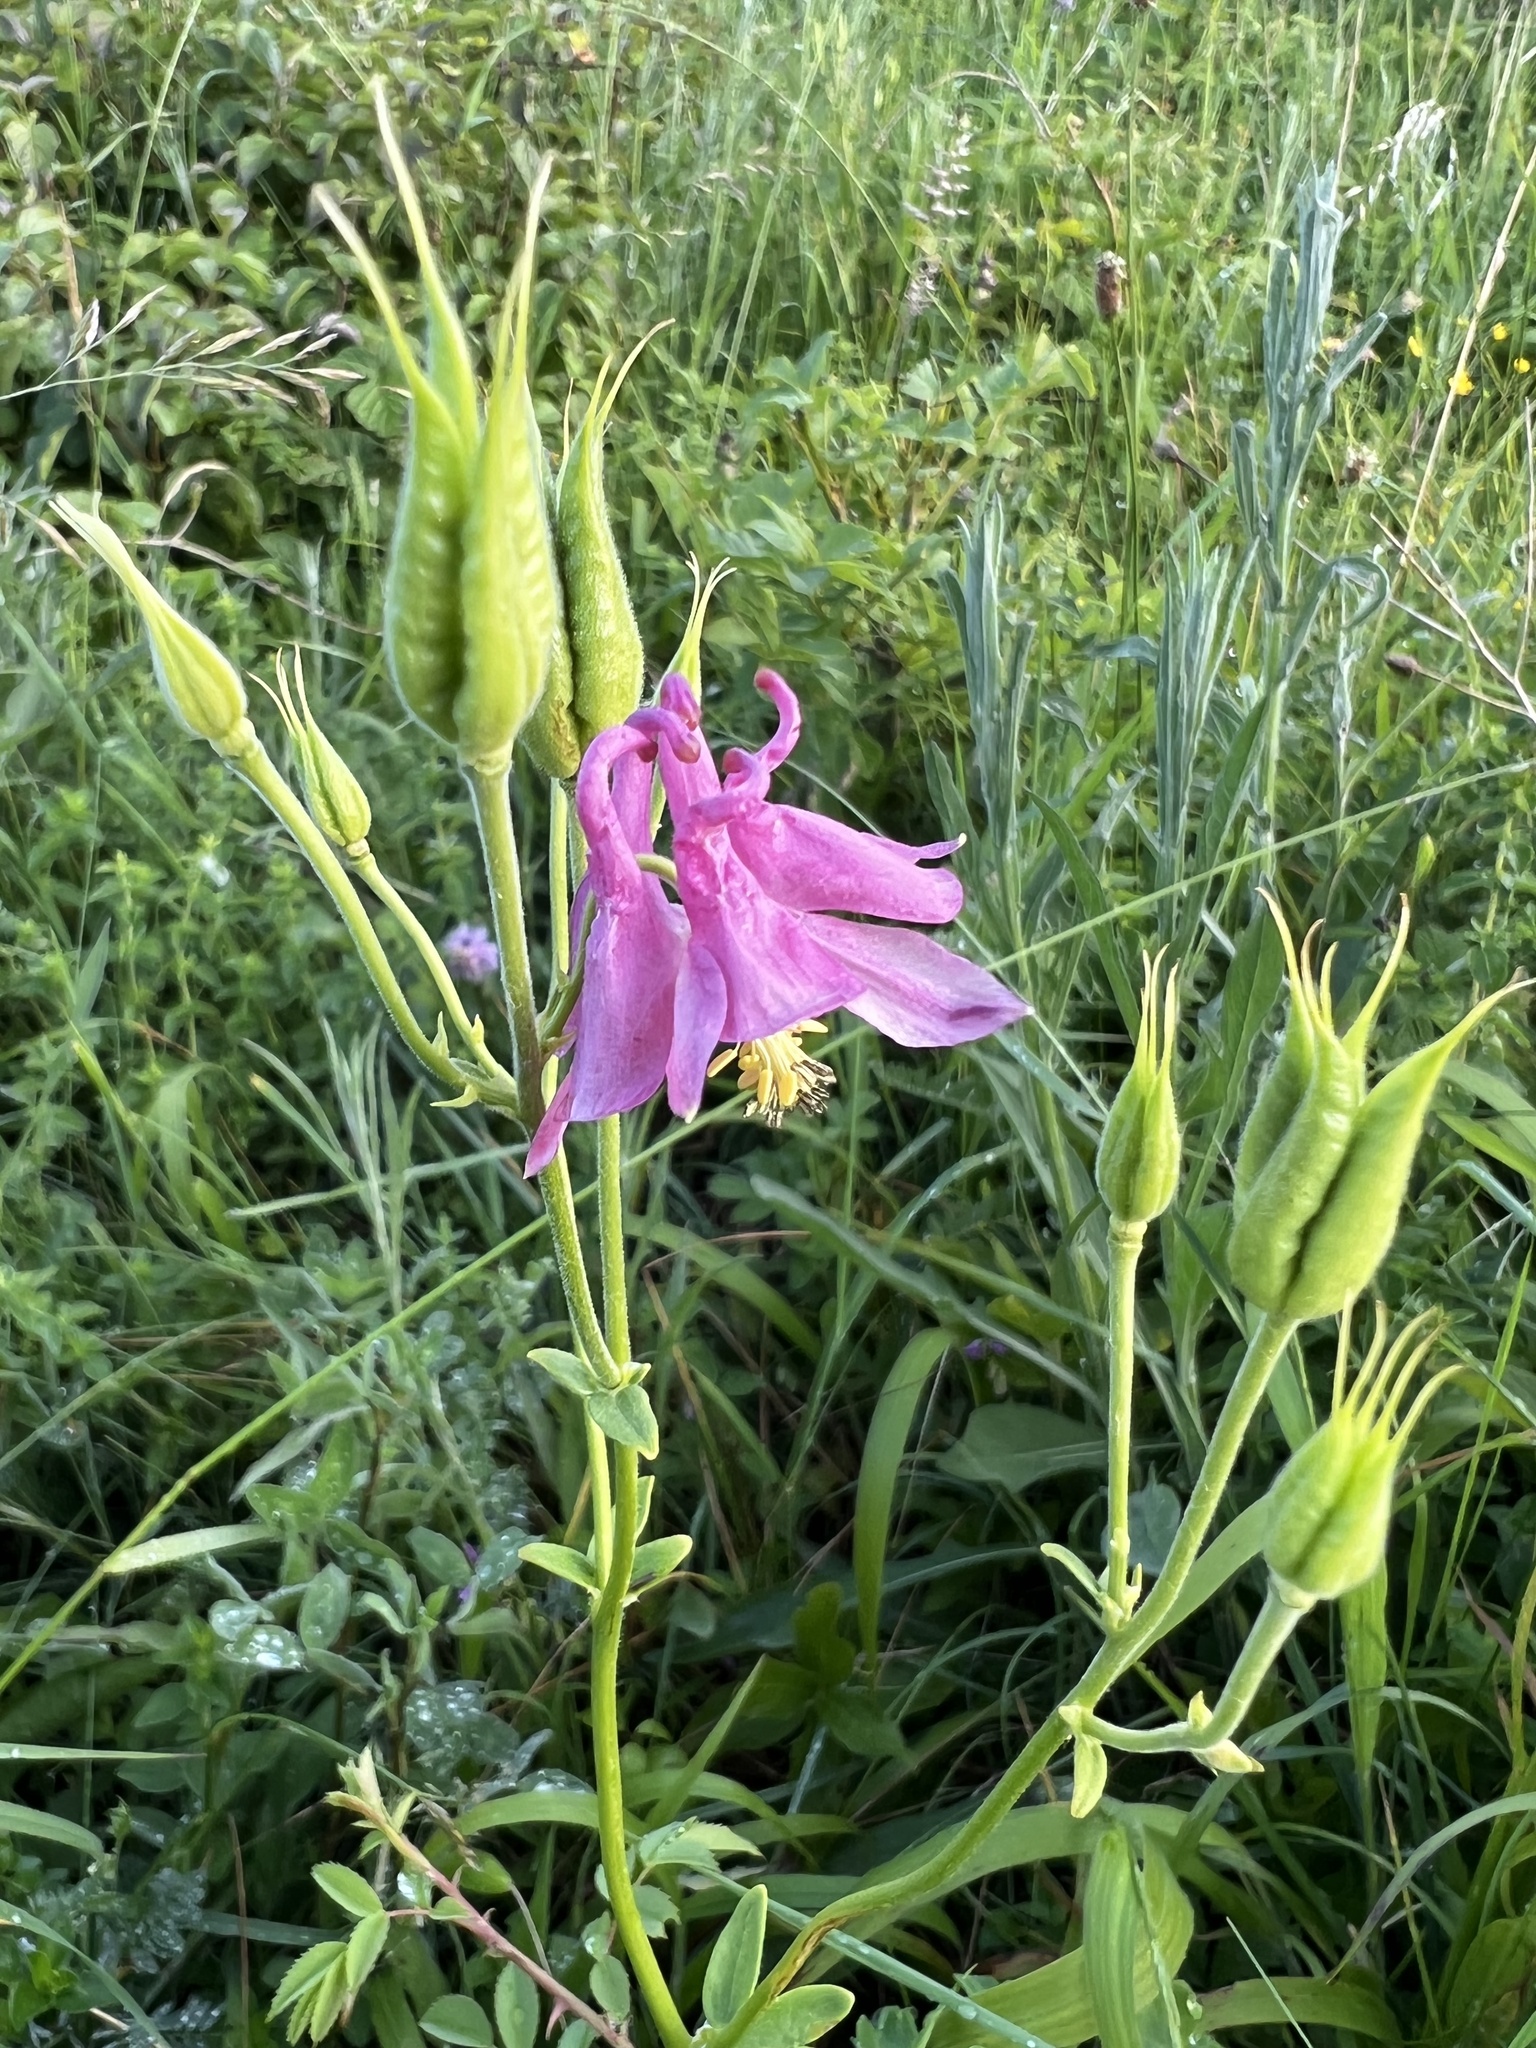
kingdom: Plantae
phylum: Tracheophyta
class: Magnoliopsida
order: Ranunculales
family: Ranunculaceae
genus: Aquilegia
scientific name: Aquilegia vulgaris
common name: Columbine
